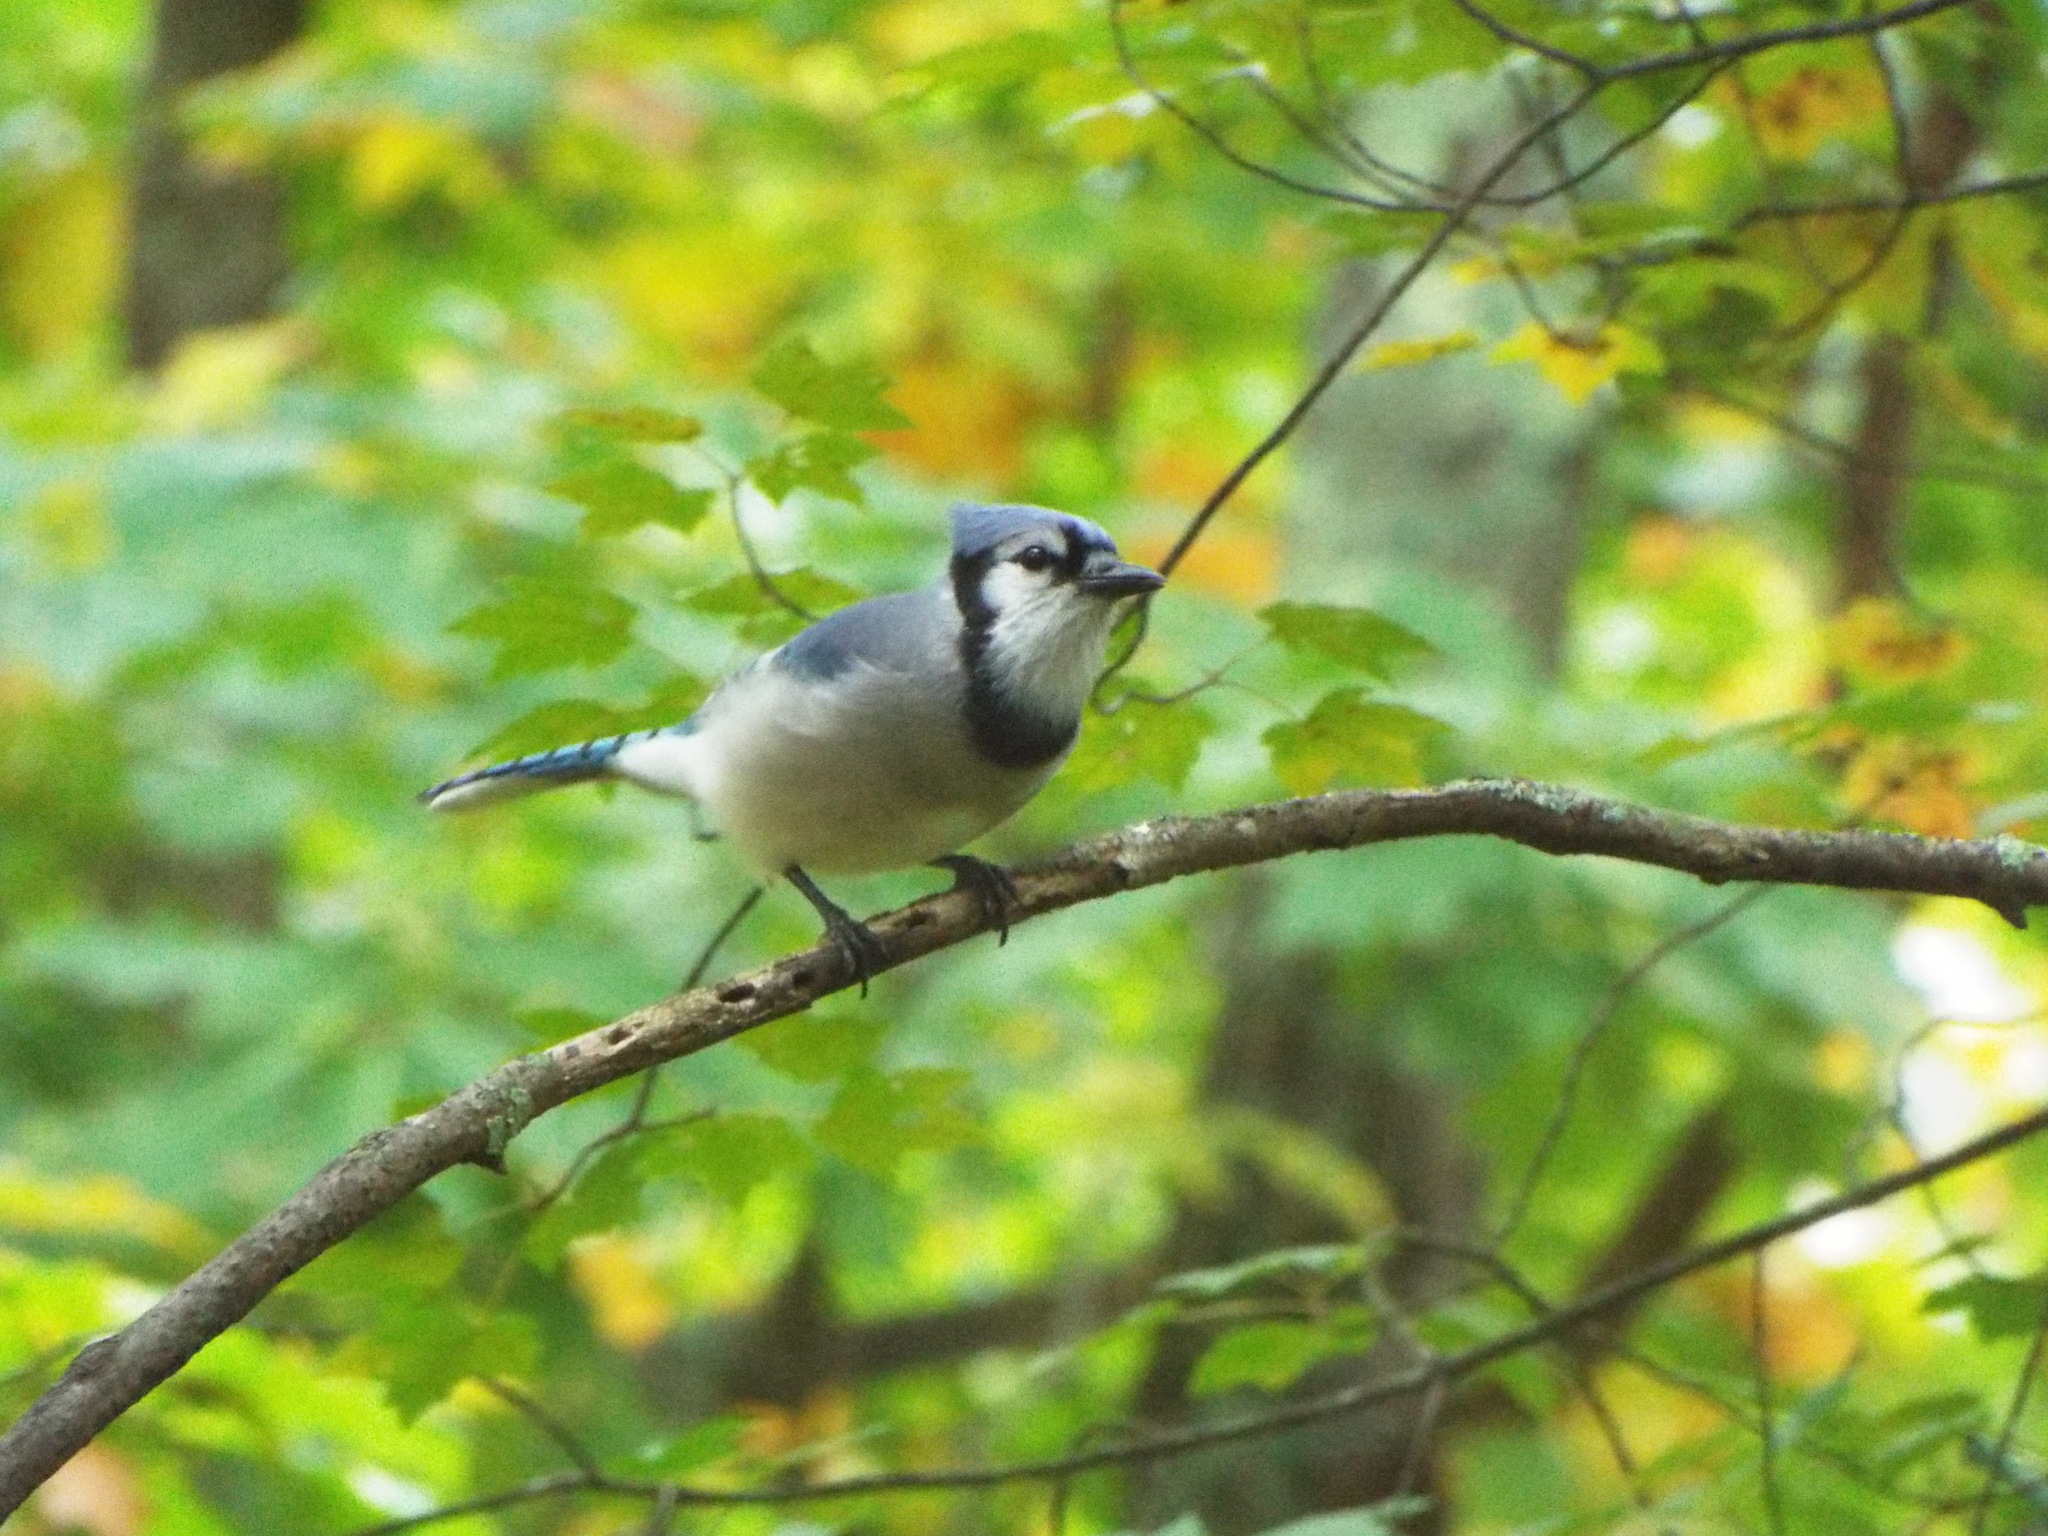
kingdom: Animalia
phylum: Chordata
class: Aves
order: Passeriformes
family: Corvidae
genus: Cyanocitta
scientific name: Cyanocitta cristata
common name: Blue jay
